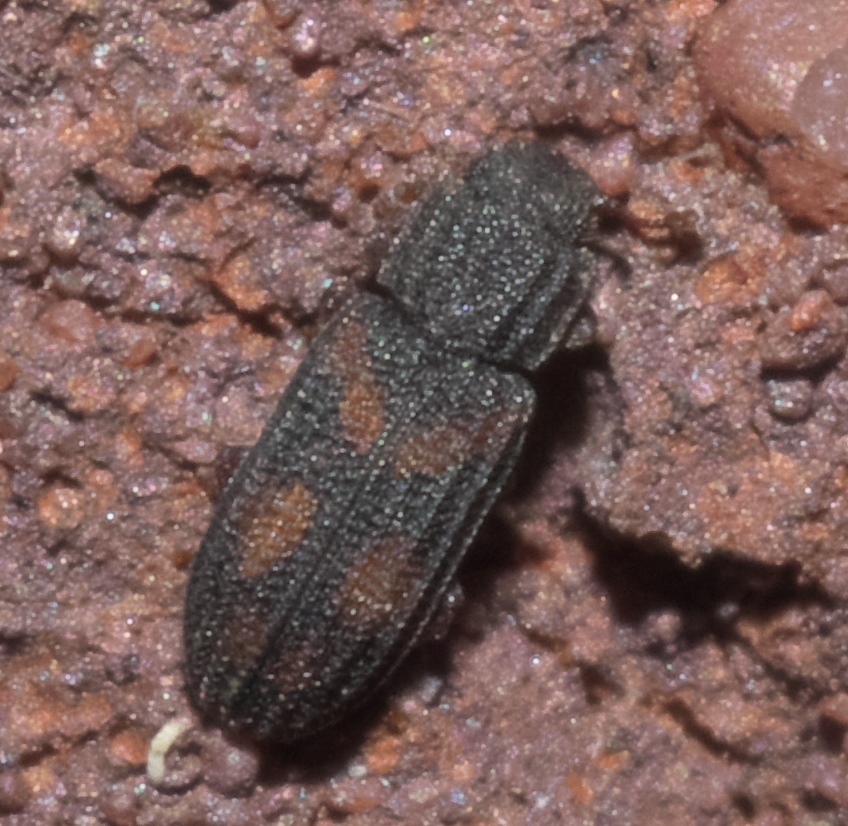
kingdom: Animalia
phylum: Arthropoda
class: Insecta
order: Coleoptera
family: Zopheridae
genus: Bitoma
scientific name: Bitoma quadriguttata
